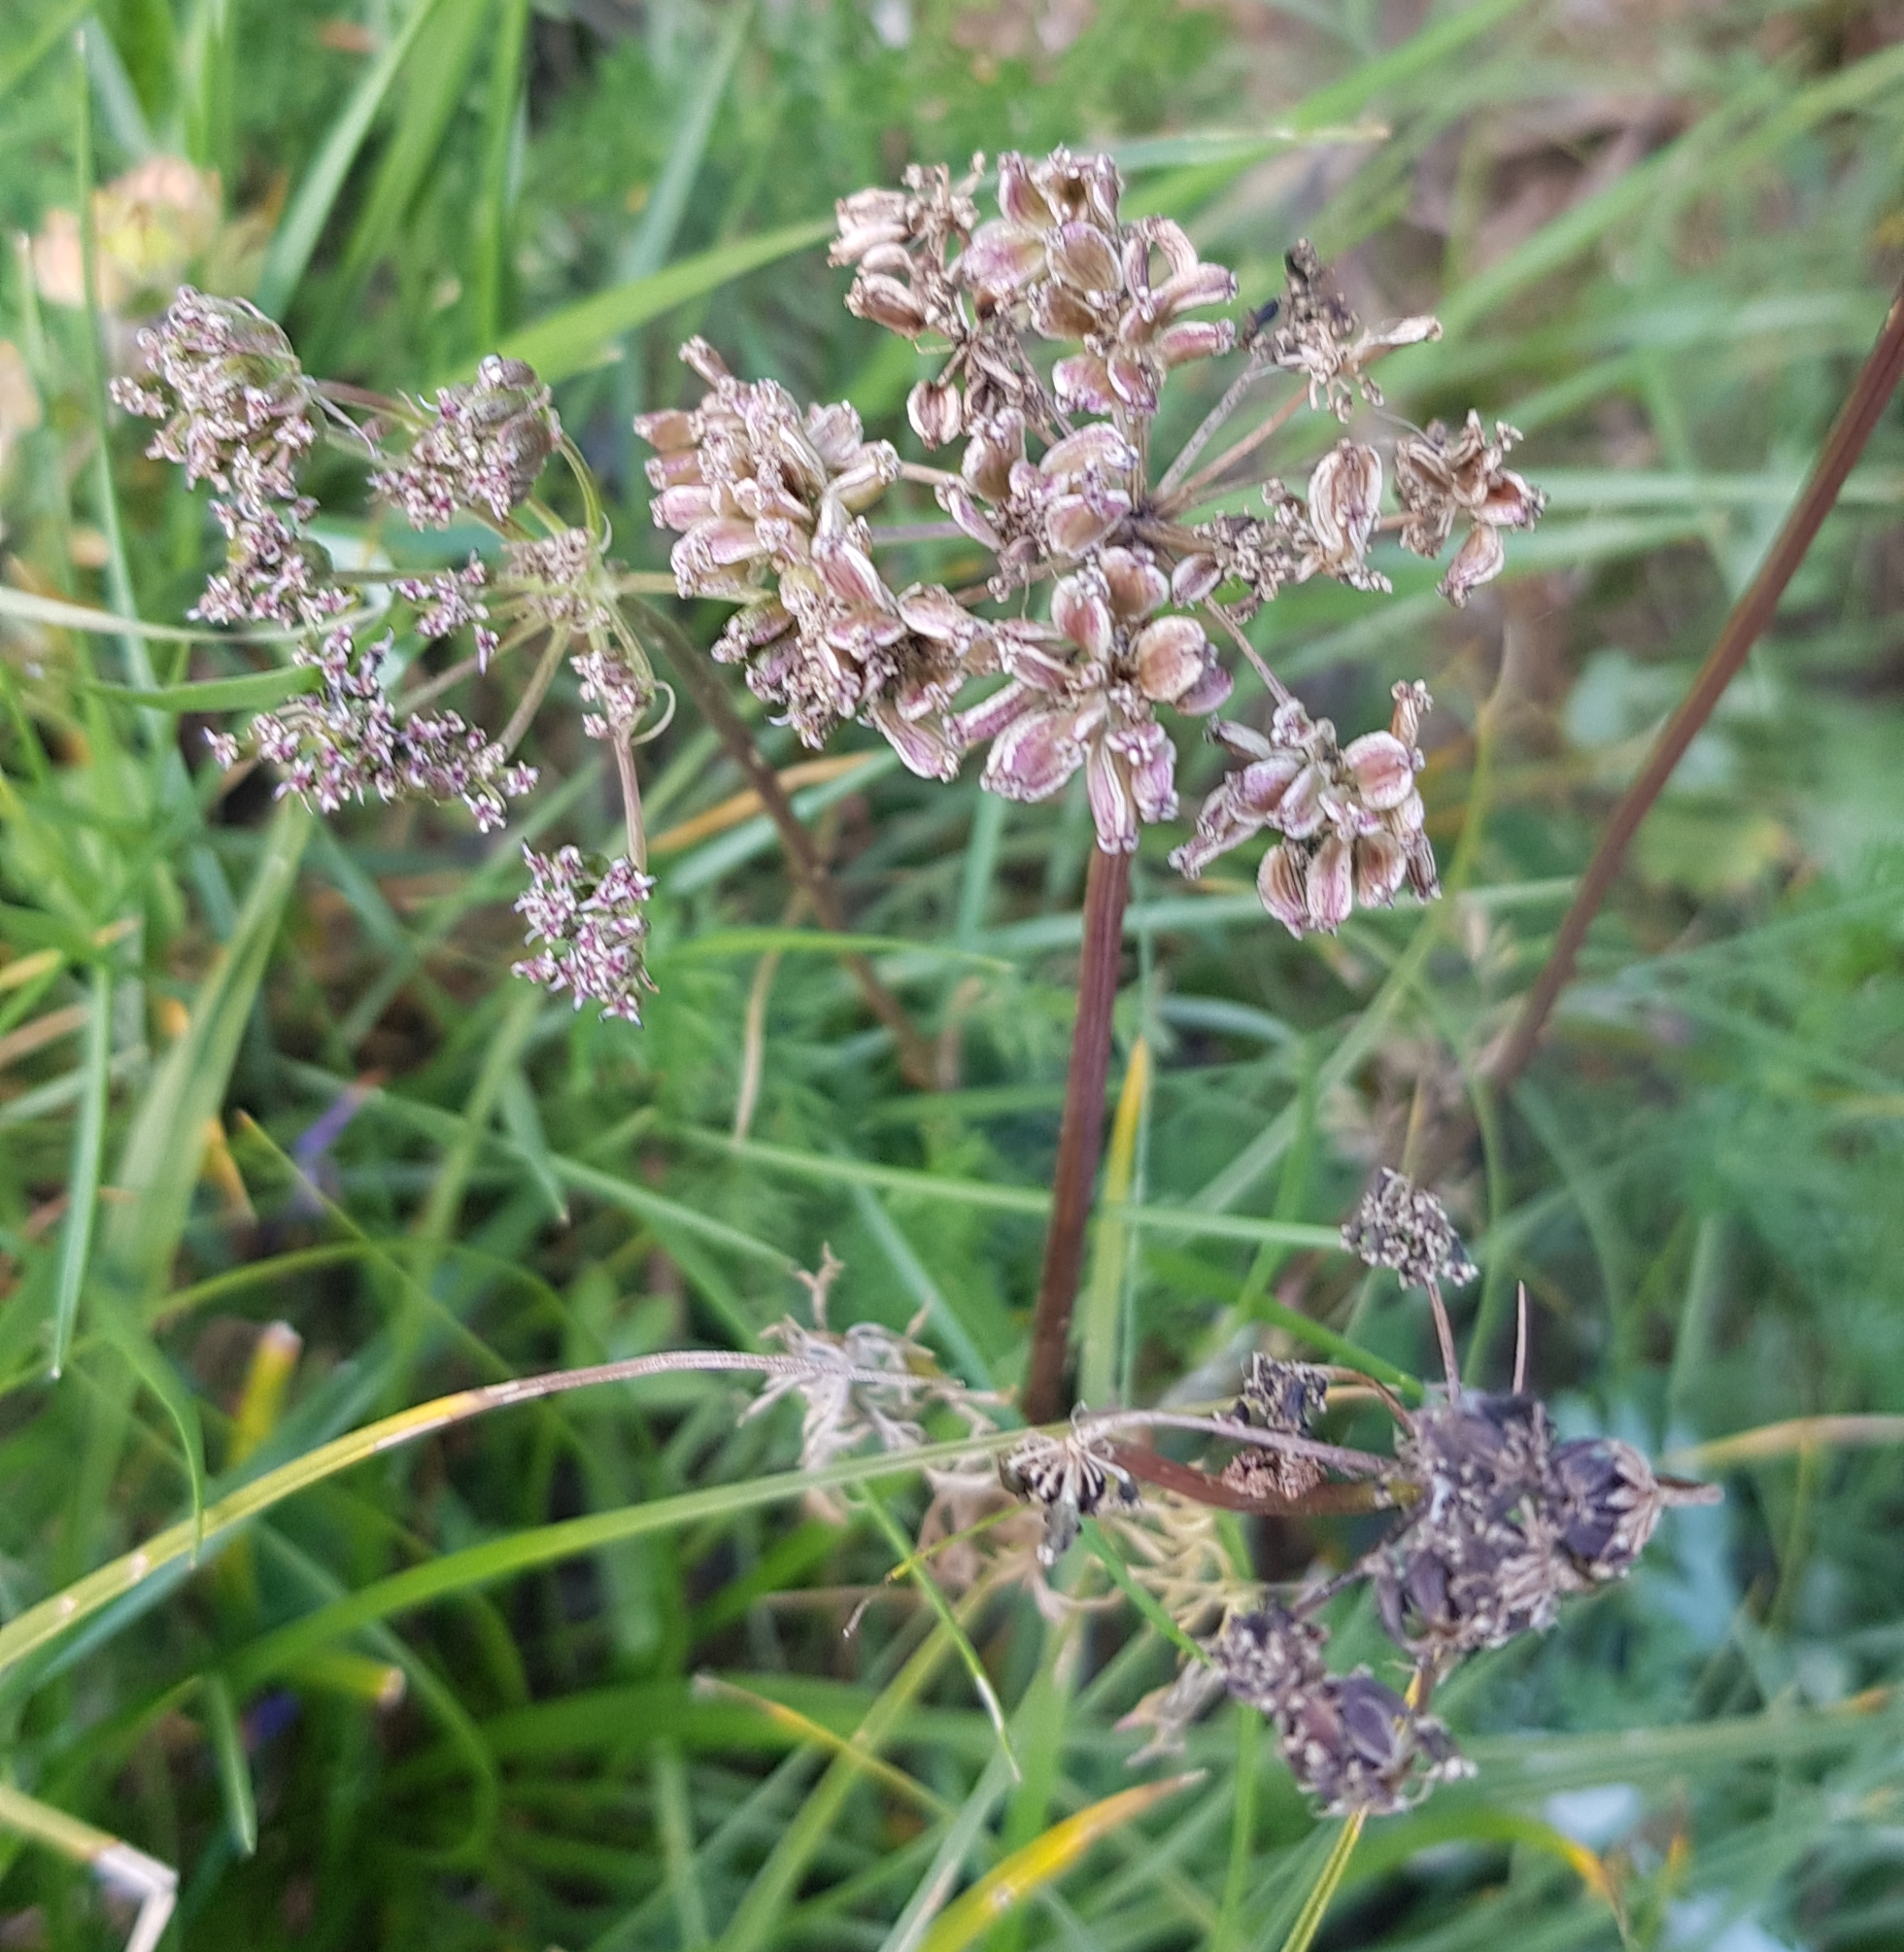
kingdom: Plantae
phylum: Tracheophyta
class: Magnoliopsida
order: Apiales
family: Apiaceae
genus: Ostericum
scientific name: Ostericum tenuifolium
